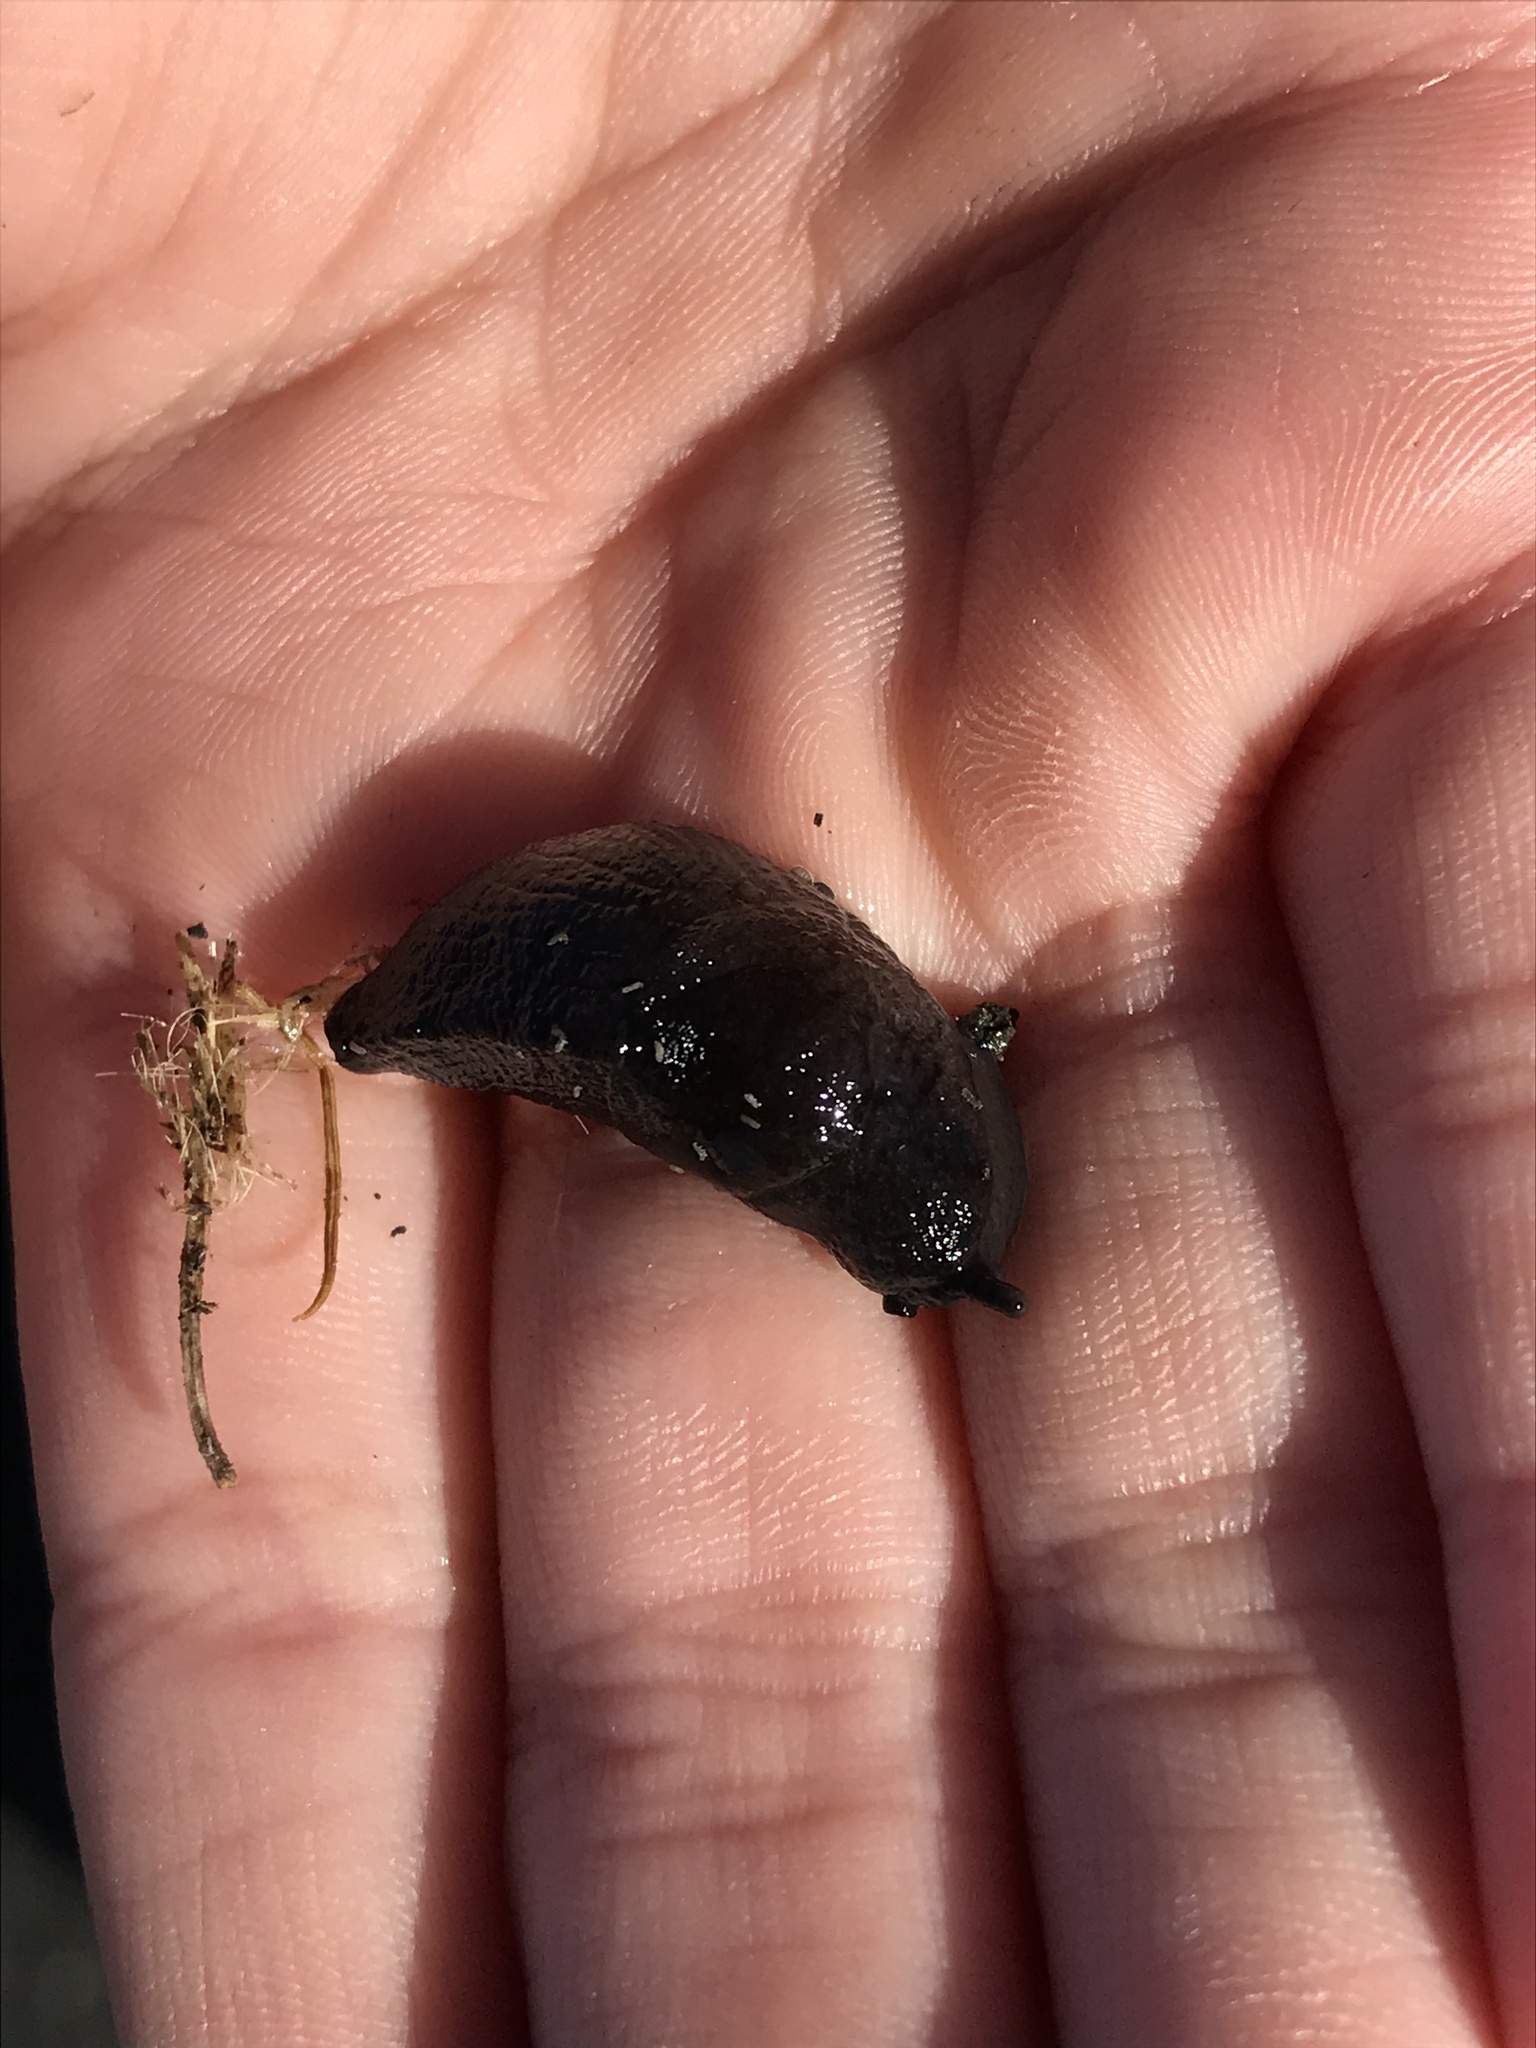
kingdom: Animalia
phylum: Mollusca
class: Gastropoda
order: Stylommatophora
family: Milacidae
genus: Milax
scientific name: Milax gagates
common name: Greenhouse slug
